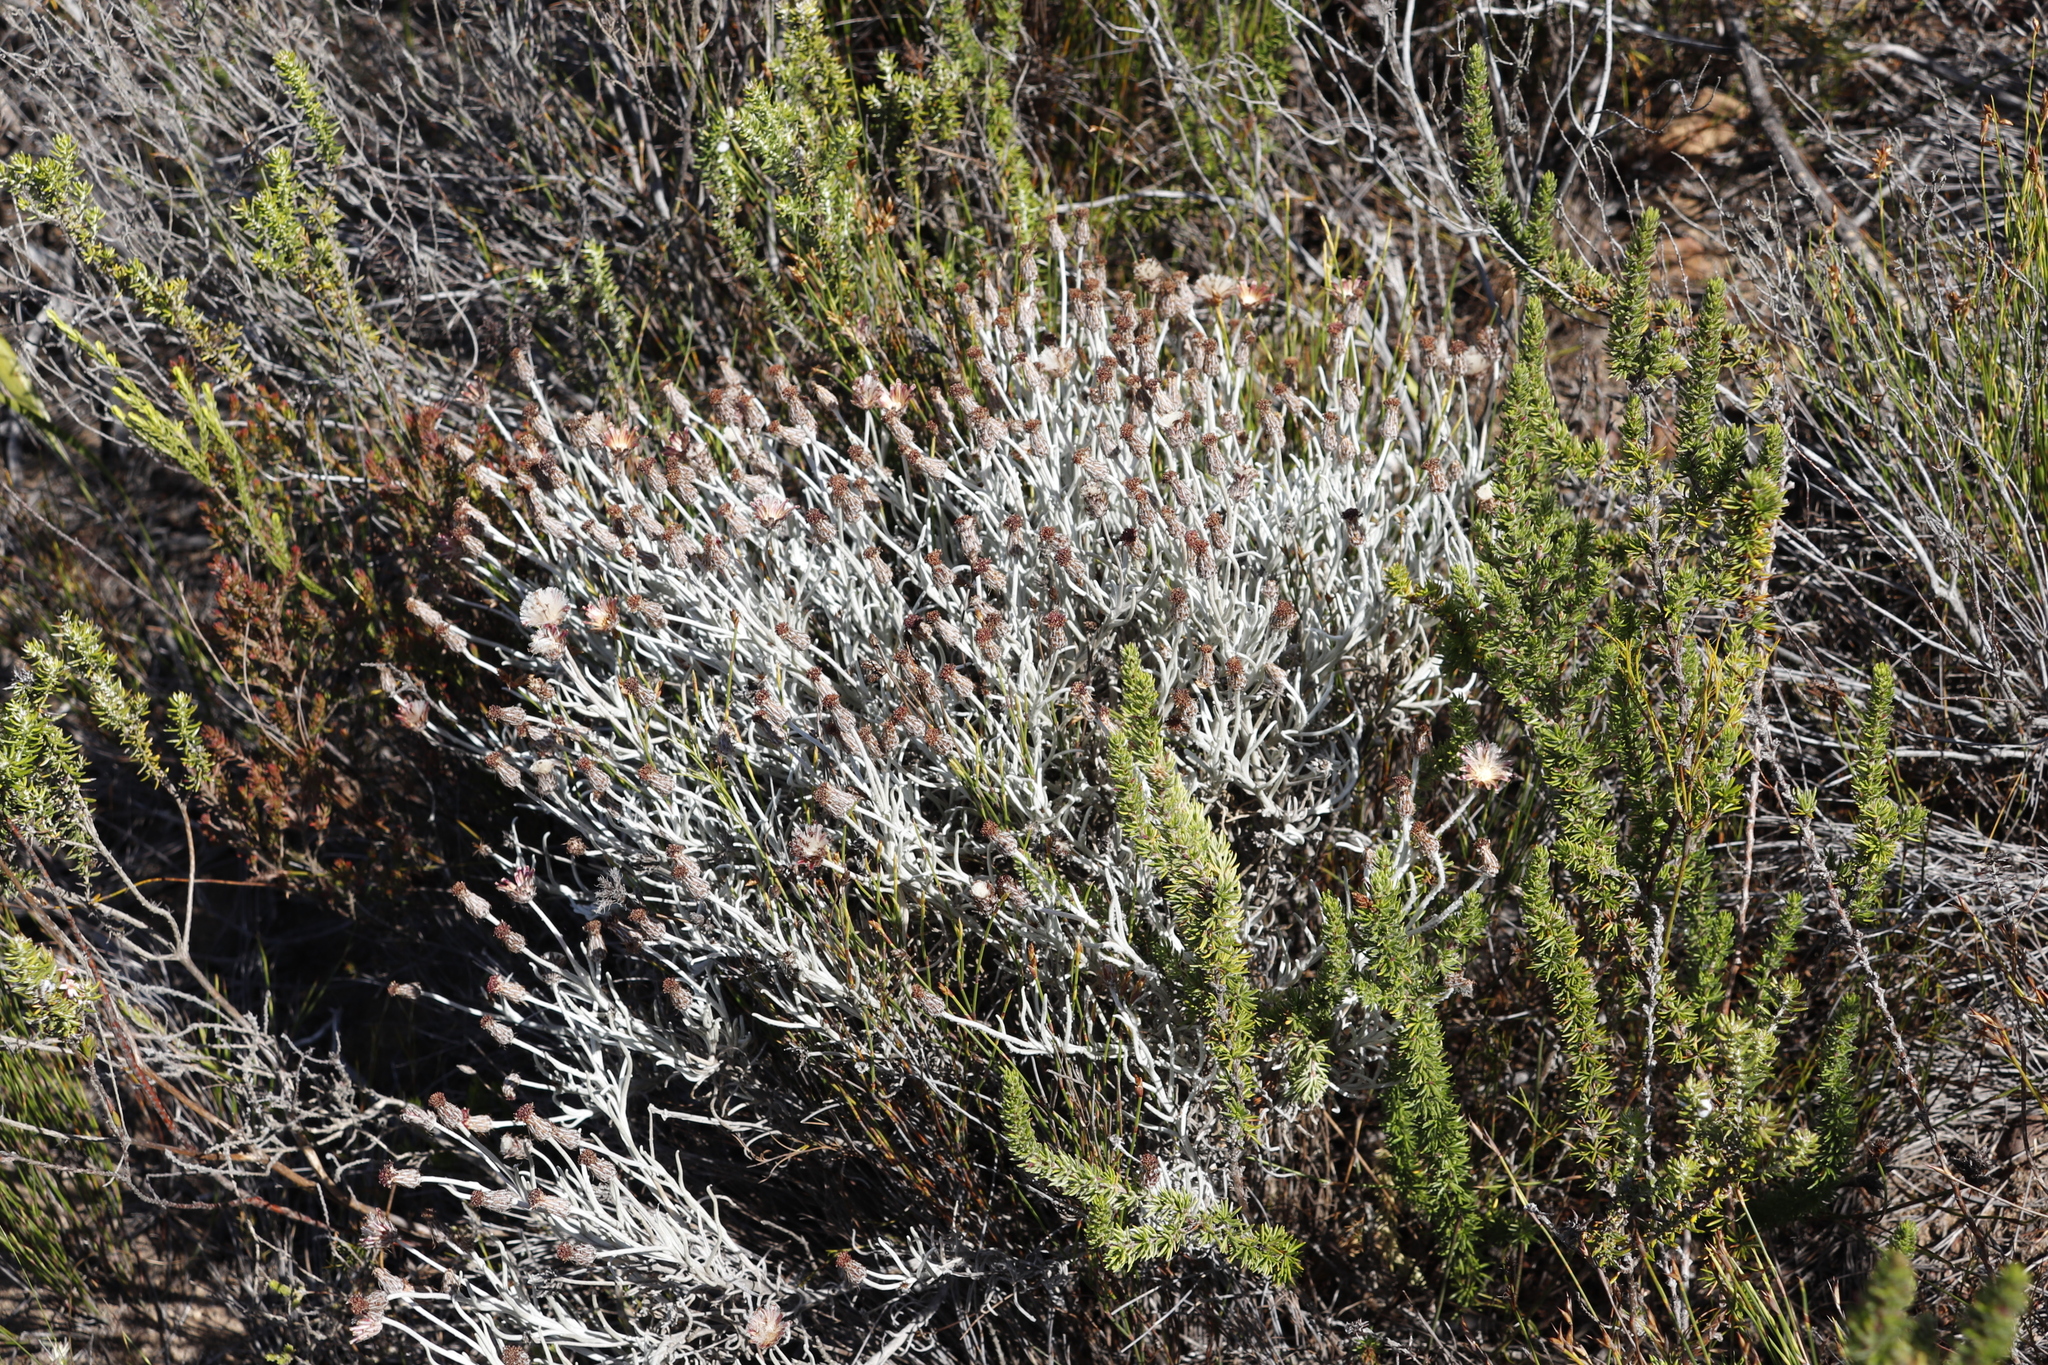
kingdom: Plantae
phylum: Tracheophyta
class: Magnoliopsida
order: Asterales
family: Asteraceae
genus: Syncarpha
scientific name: Syncarpha gnaphaloides
